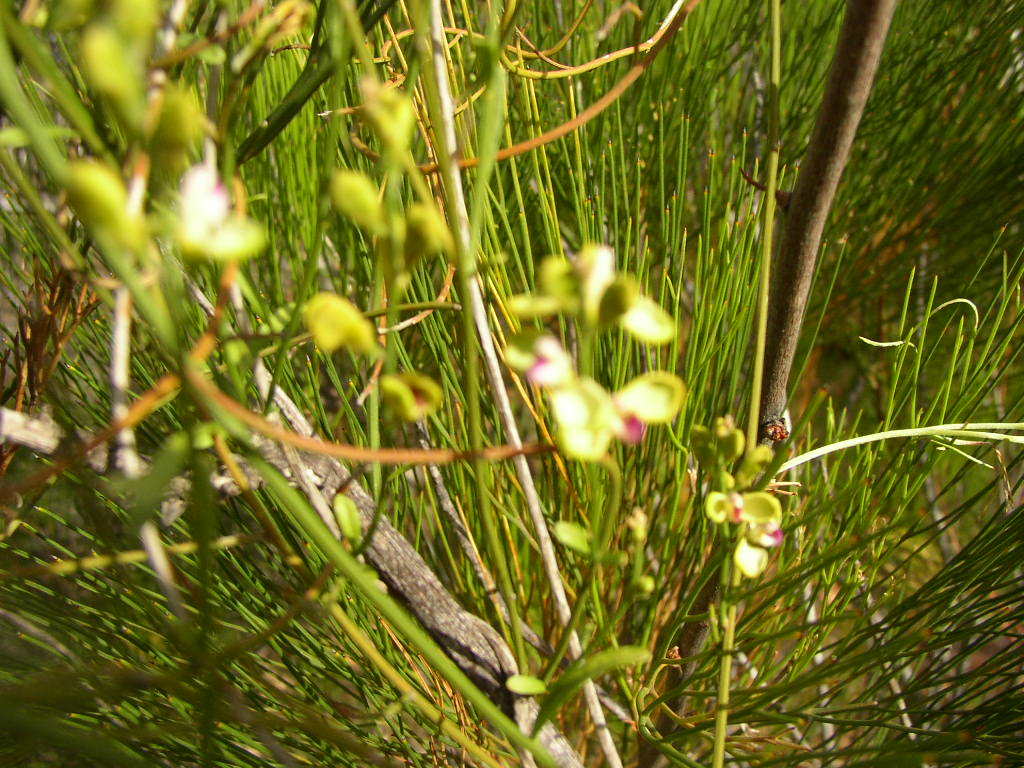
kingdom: Plantae
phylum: Tracheophyta
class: Magnoliopsida
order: Fabales
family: Polygalaceae
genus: Comesperma
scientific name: Comesperma integerrimum
